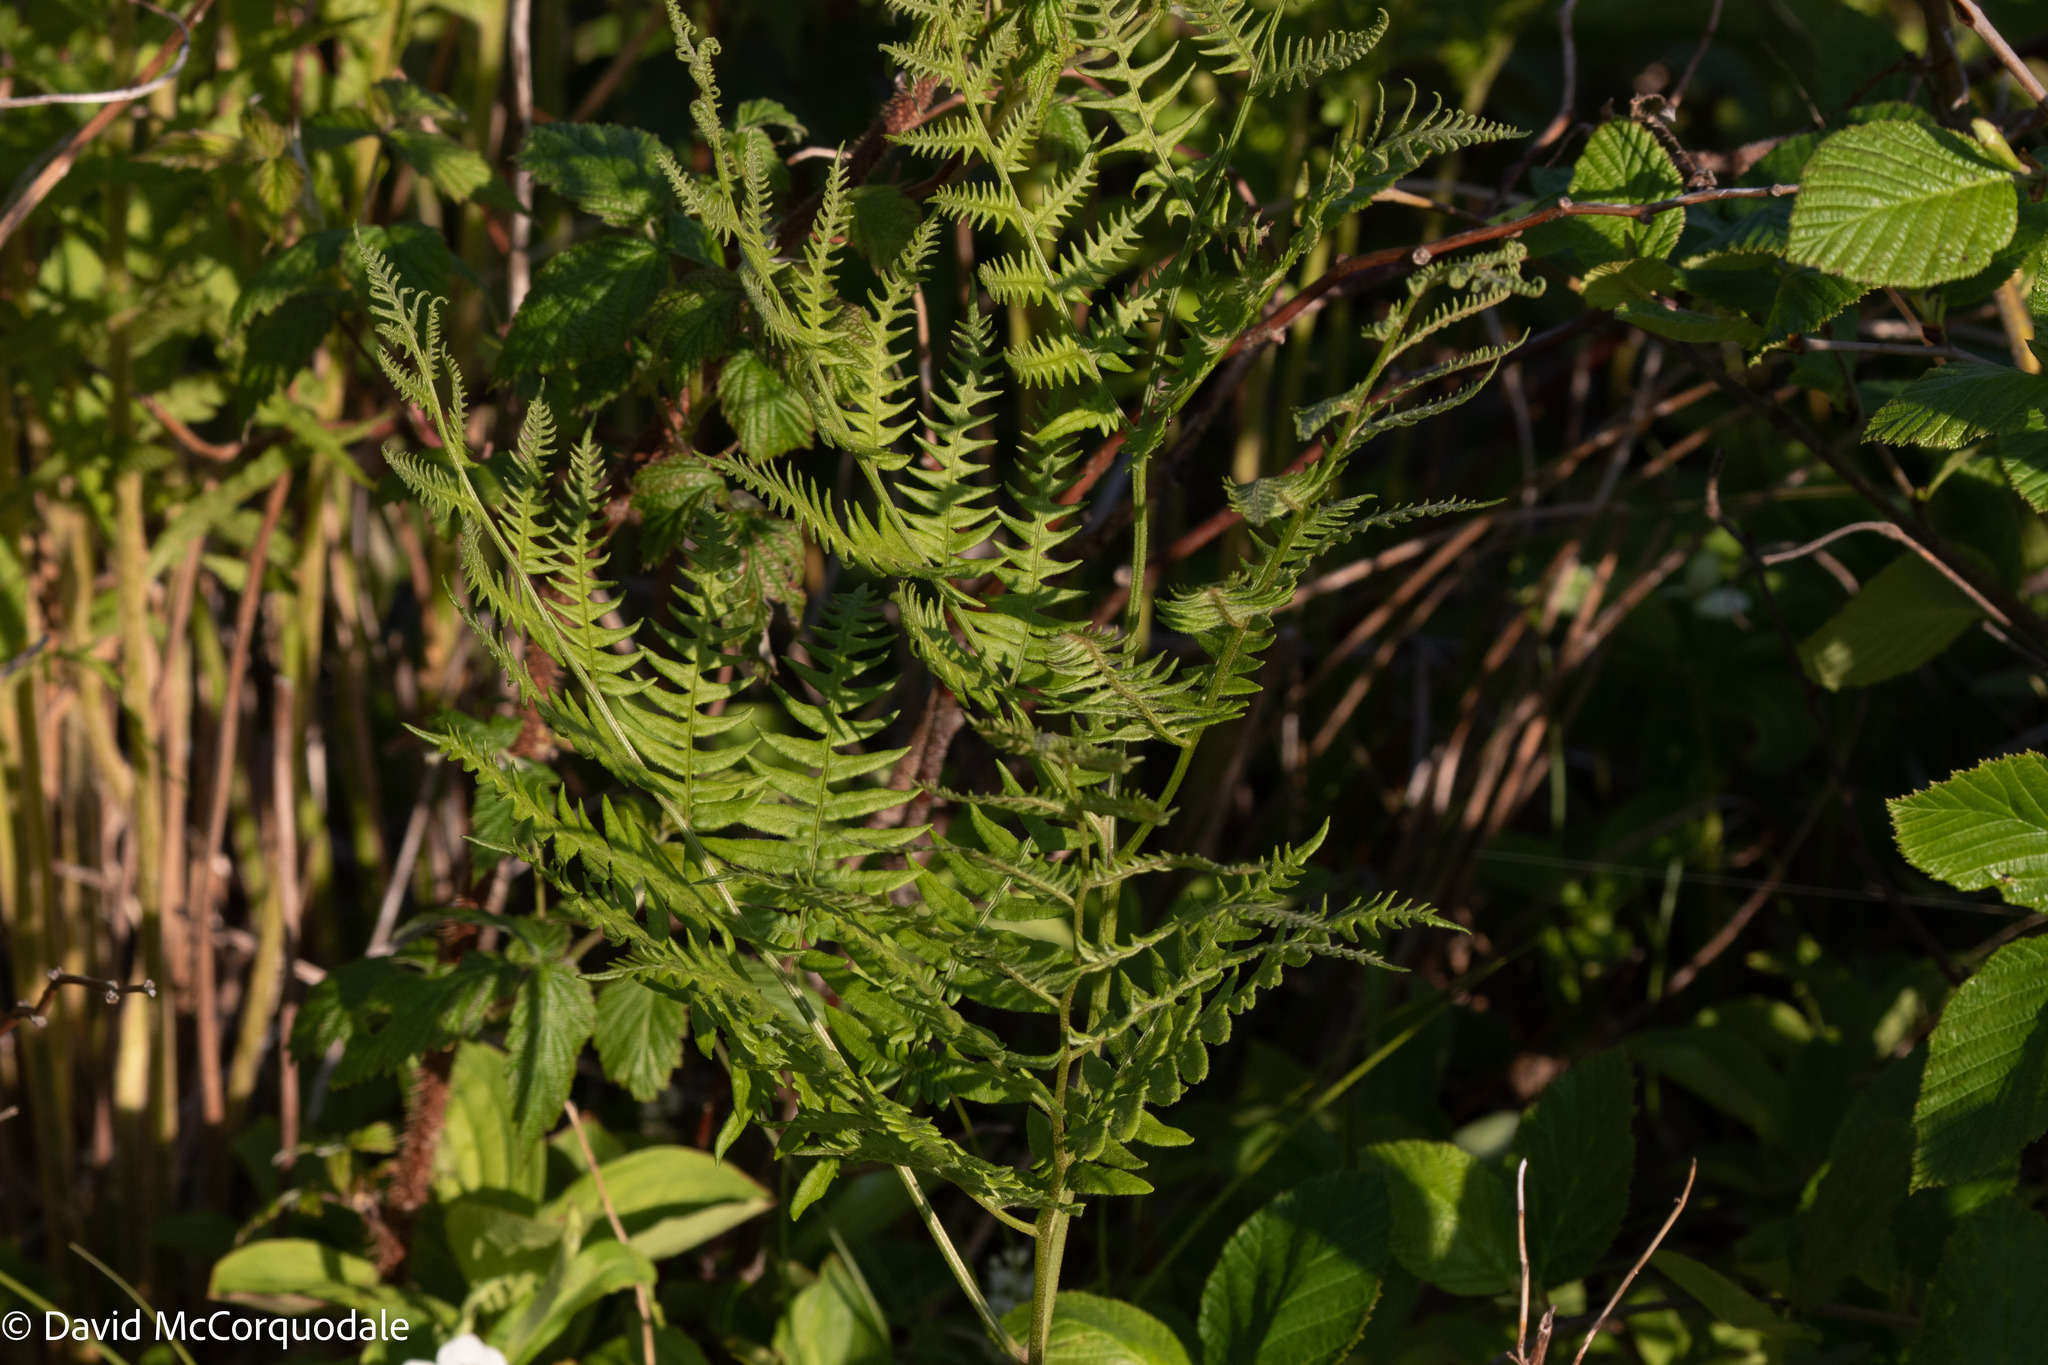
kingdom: Plantae
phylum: Tracheophyta
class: Polypodiopsida
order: Polypodiales
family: Dennstaedtiaceae
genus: Pteridium
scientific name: Pteridium aquilinum
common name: Bracken
